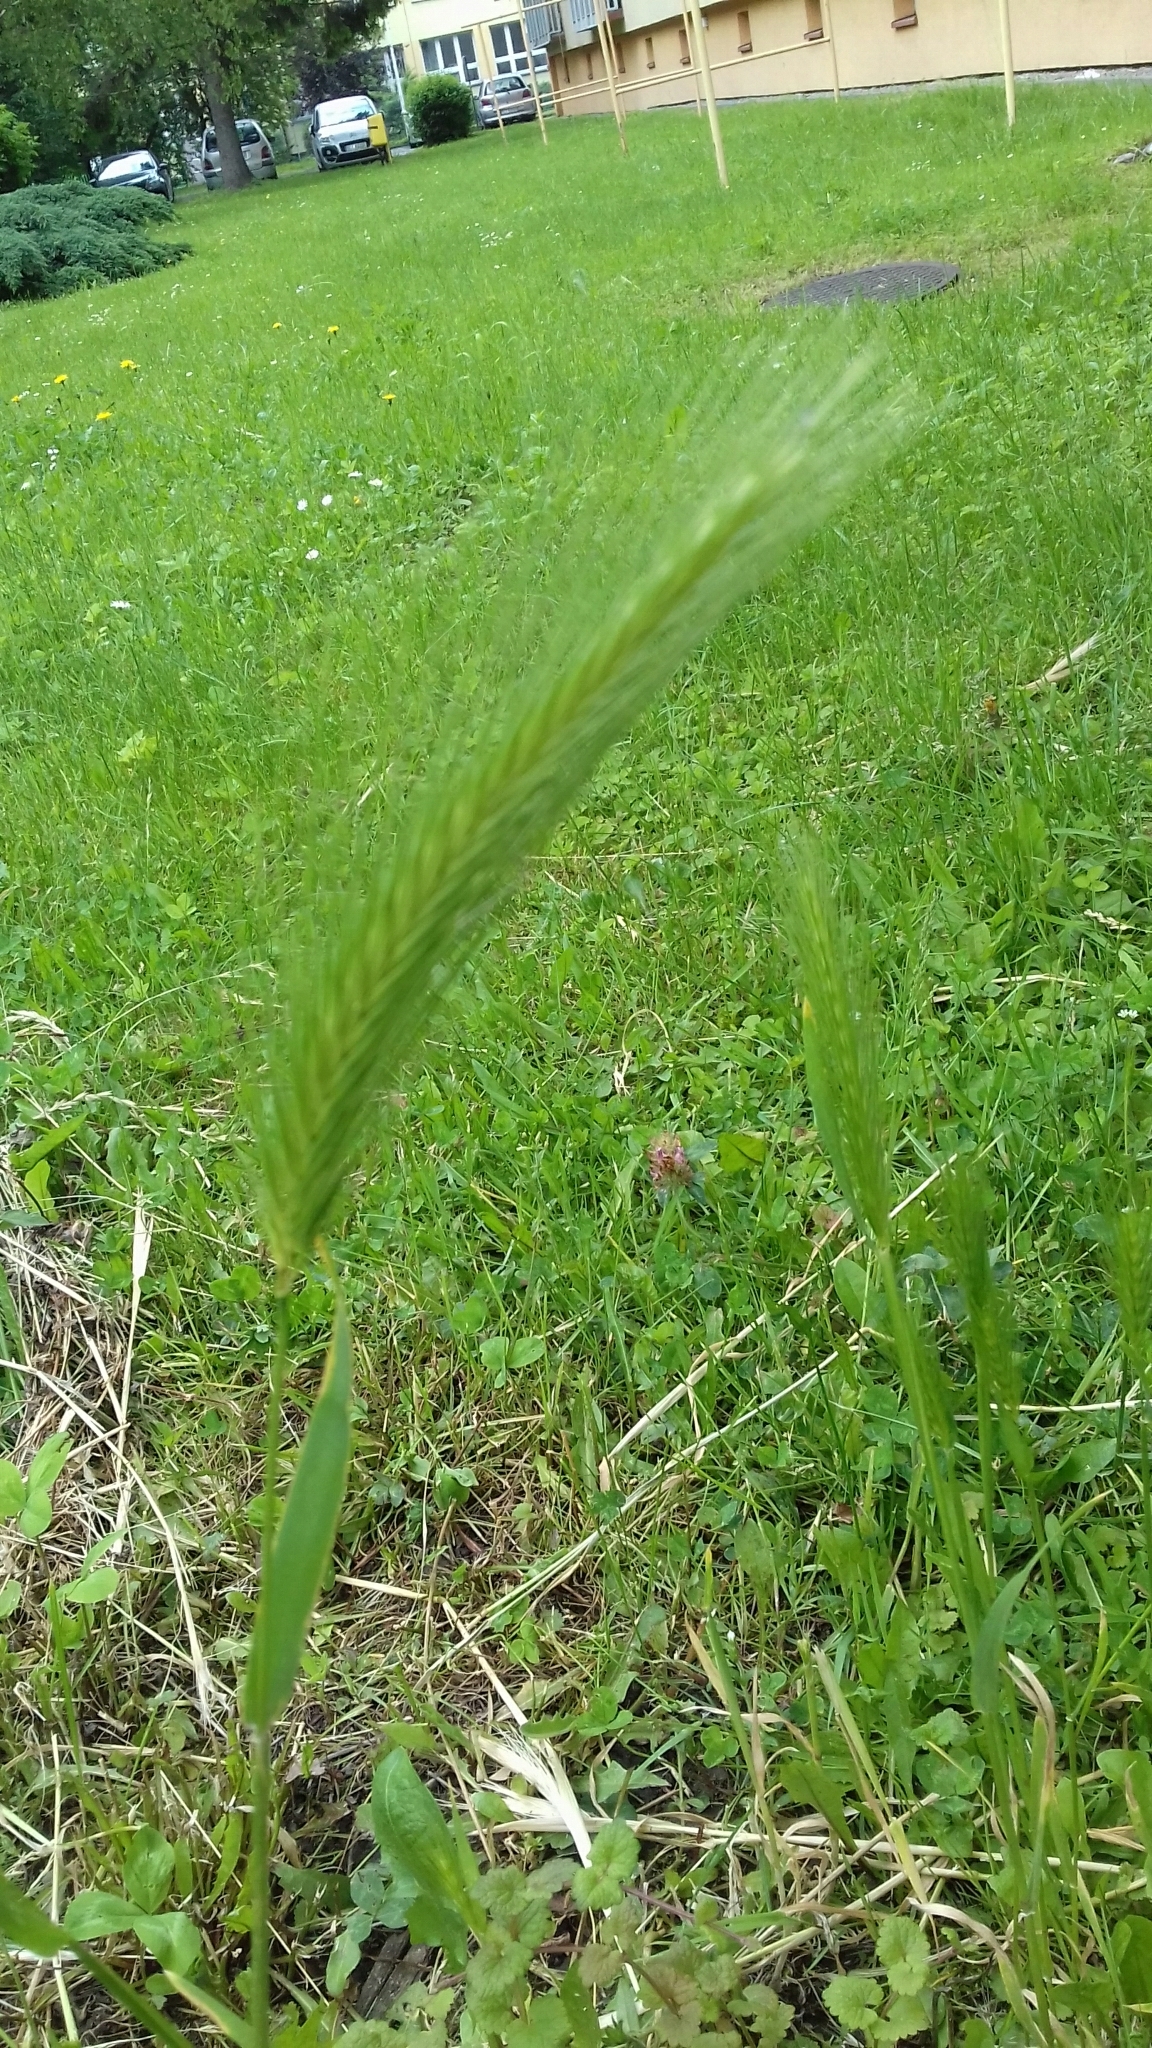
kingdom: Plantae
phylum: Tracheophyta
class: Liliopsida
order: Poales
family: Poaceae
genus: Hordeum
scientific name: Hordeum murinum
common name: Wall barley
